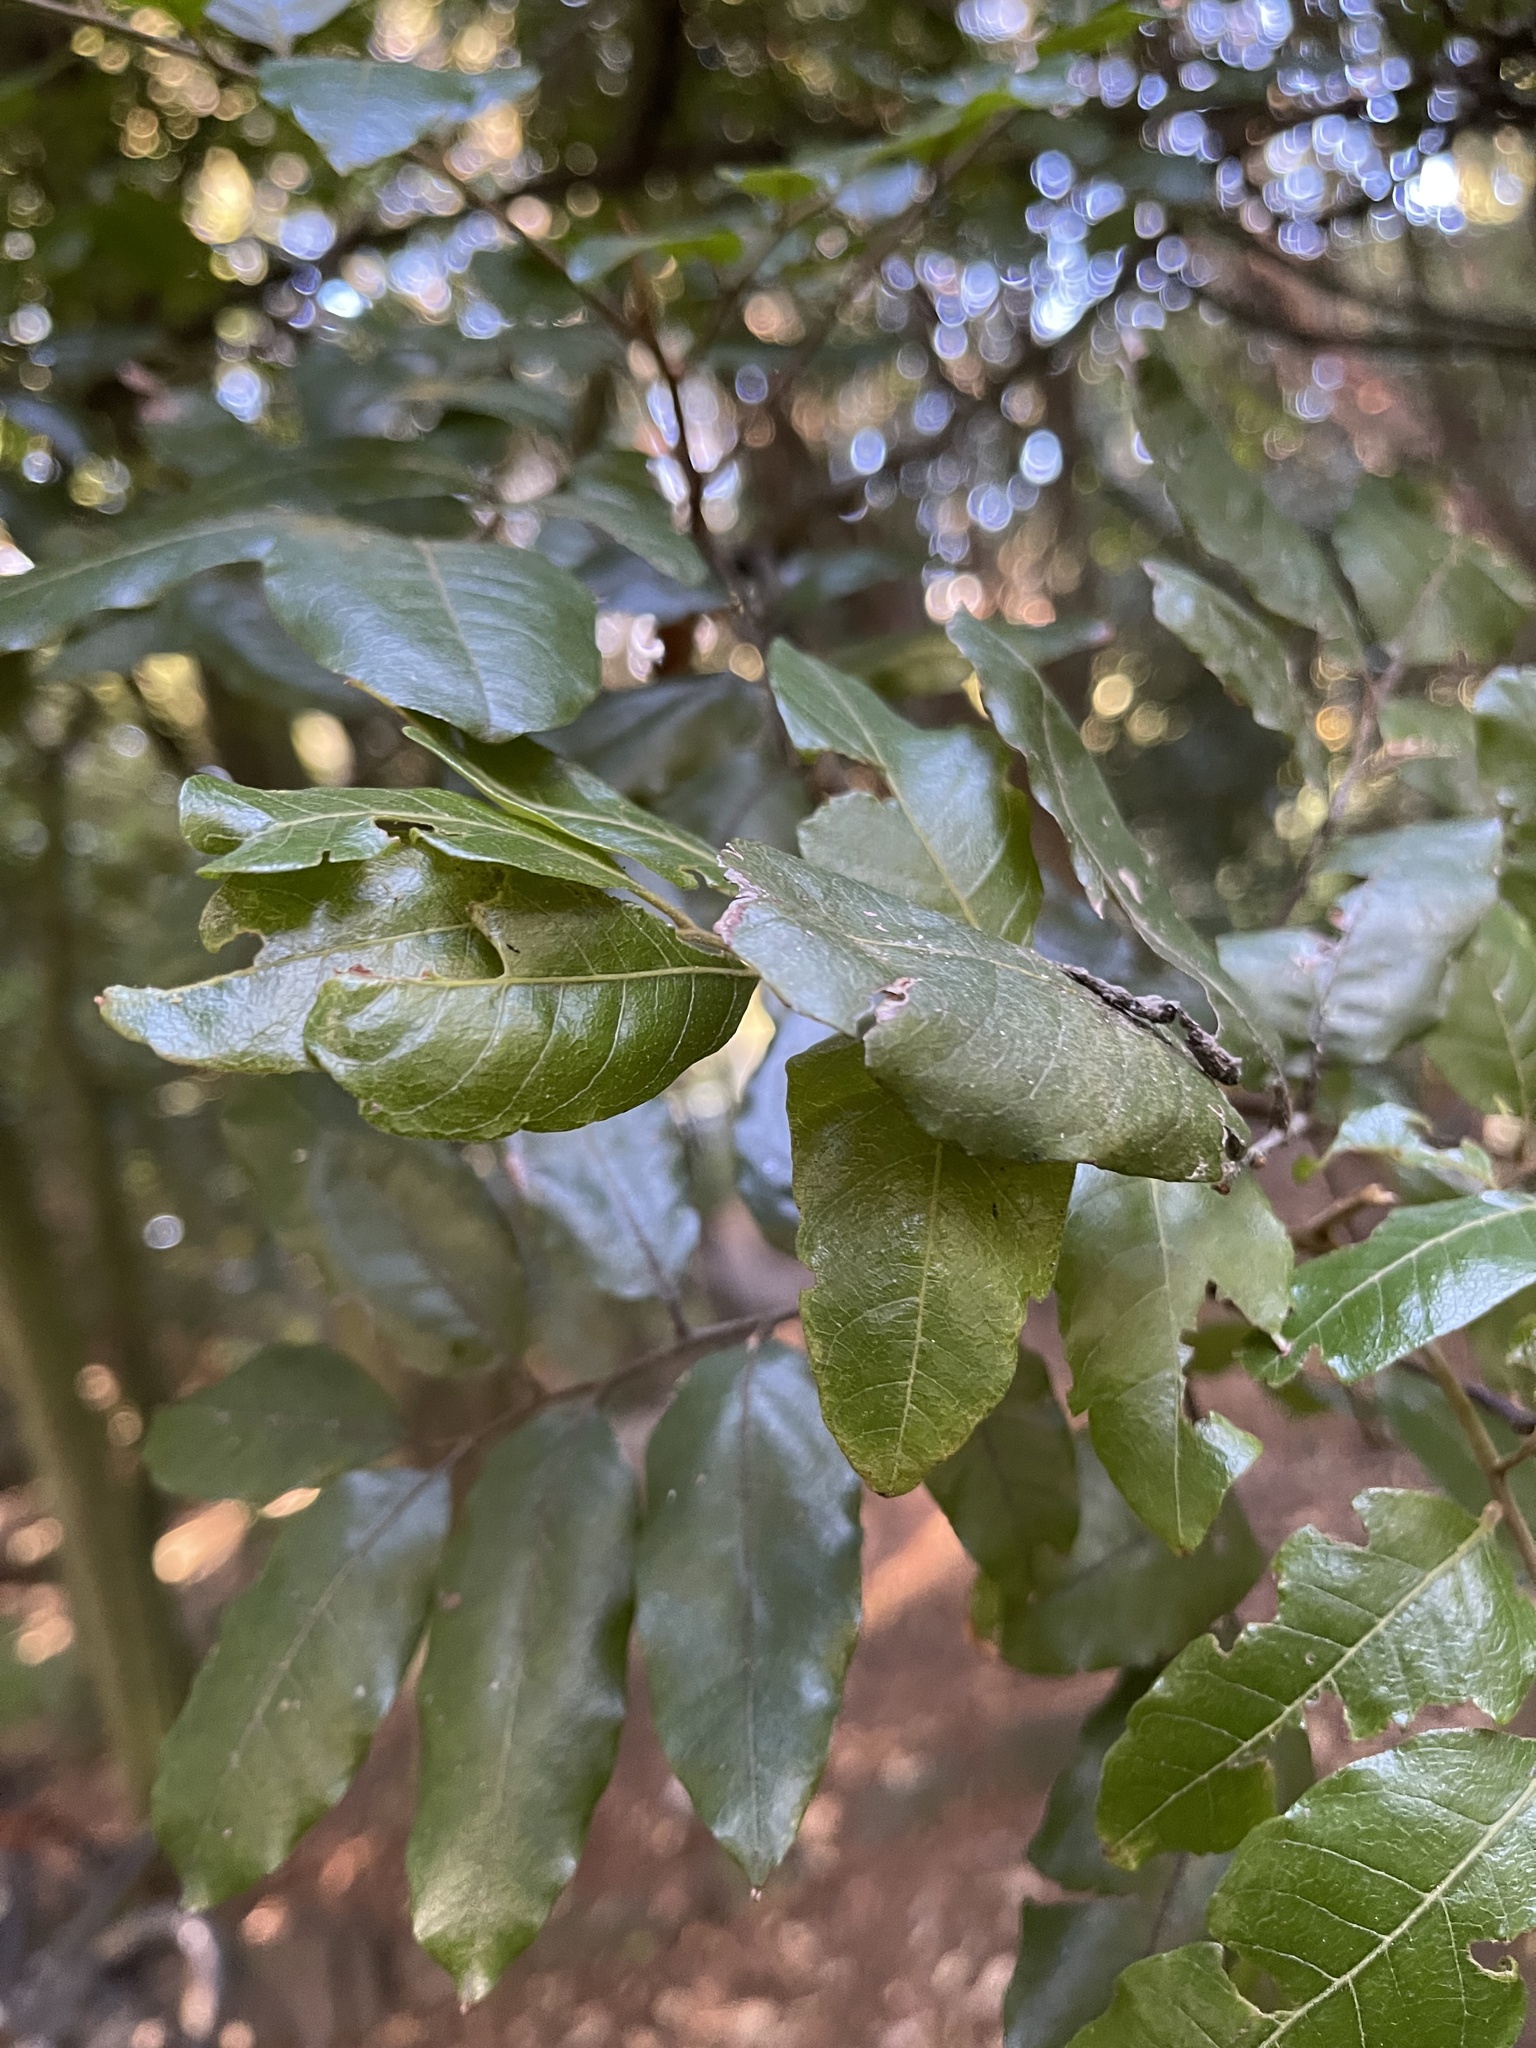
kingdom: Plantae
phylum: Tracheophyta
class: Magnoliopsida
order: Sapindales
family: Sapindaceae
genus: Alectryon
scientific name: Alectryon excelsus
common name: Three kings titoki
